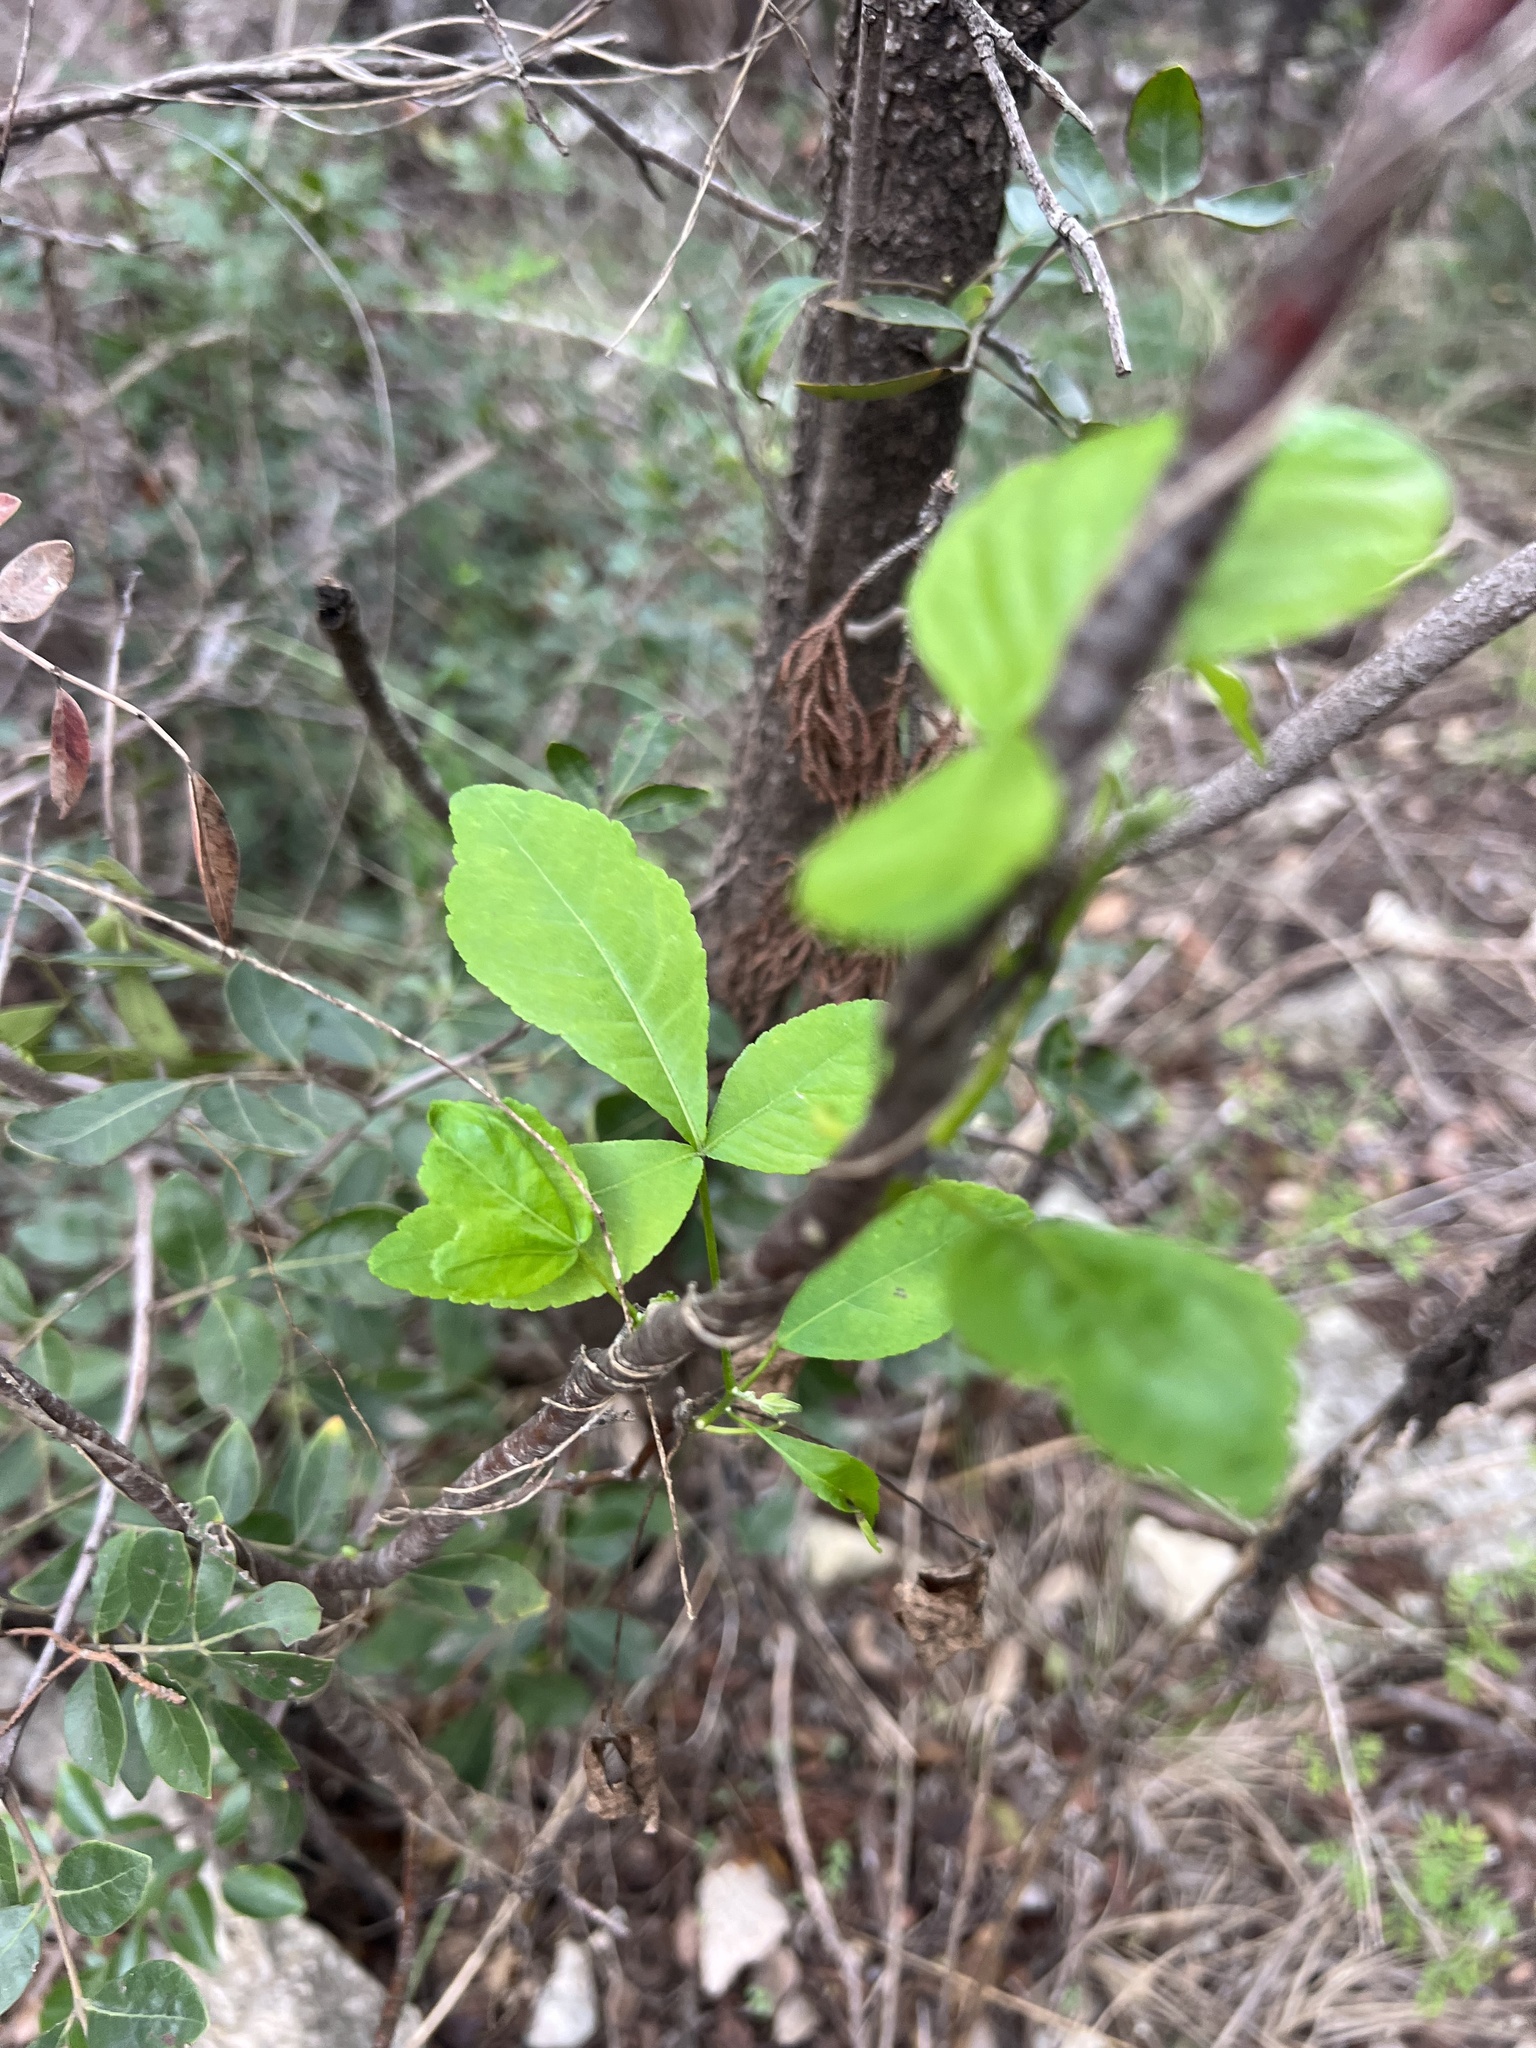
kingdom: Plantae
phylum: Tracheophyta
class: Magnoliopsida
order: Sapindales
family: Rutaceae
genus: Ptelea
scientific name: Ptelea trifoliata
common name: Common hop-tree
